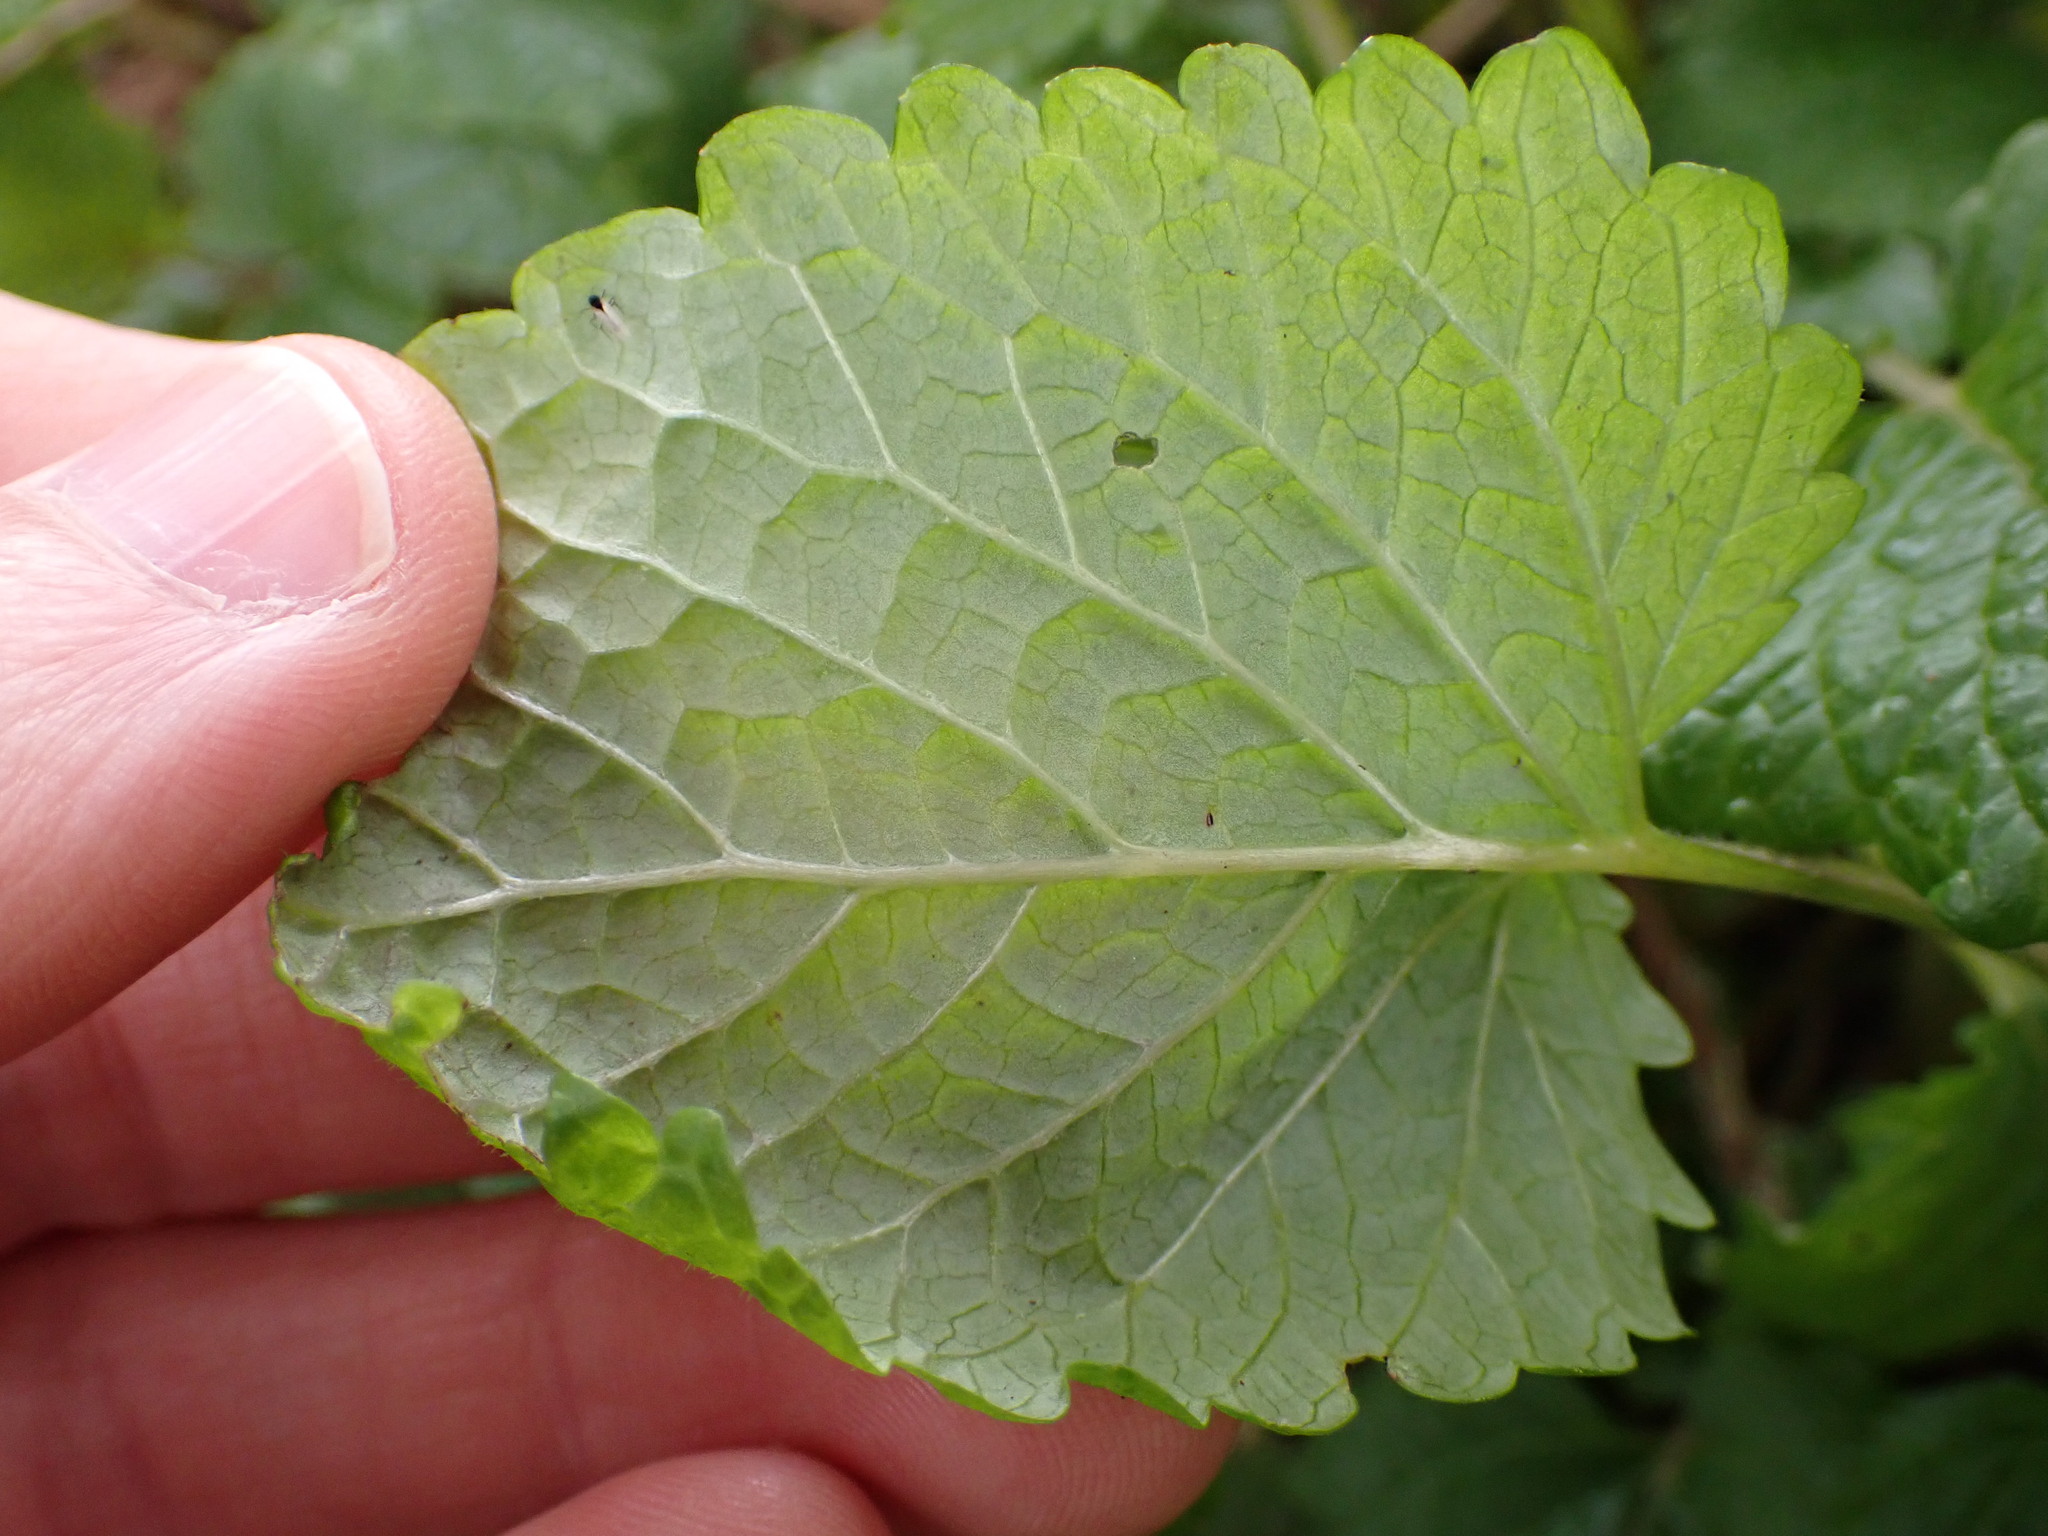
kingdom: Plantae
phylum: Tracheophyta
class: Magnoliopsida
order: Lamiales
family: Lamiaceae
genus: Melissa
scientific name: Melissa officinalis
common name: Balm
